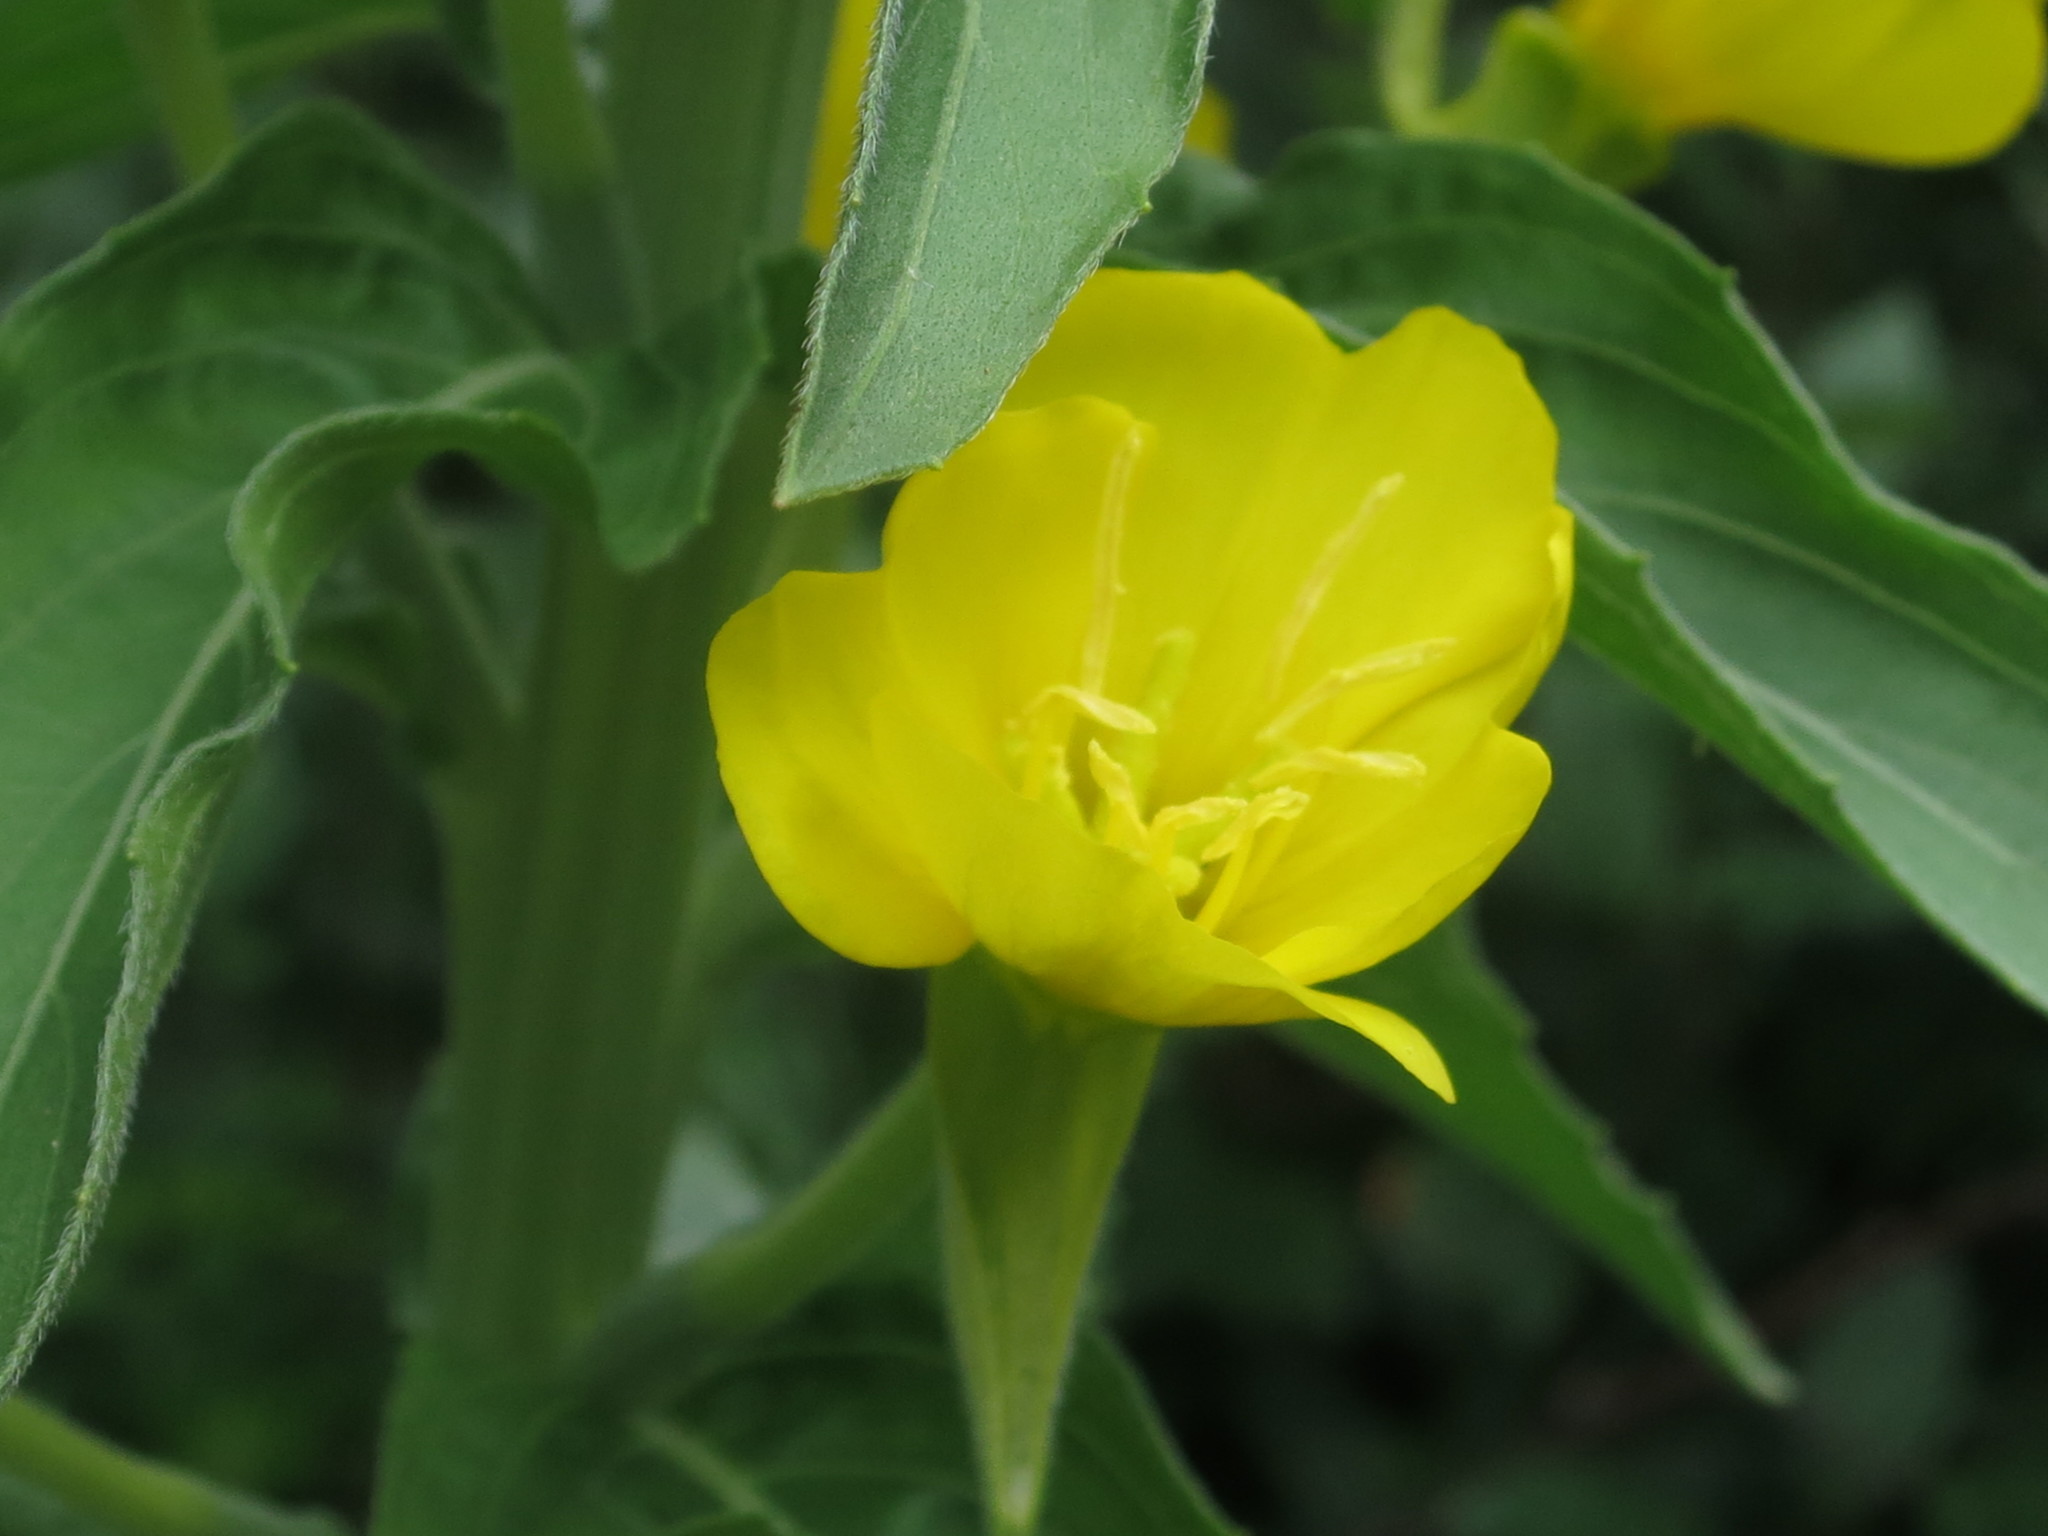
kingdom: Plantae
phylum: Tracheophyta
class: Magnoliopsida
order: Myrtales
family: Onagraceae
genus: Oenothera
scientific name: Oenothera villosa
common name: Hairy evening-primrose
